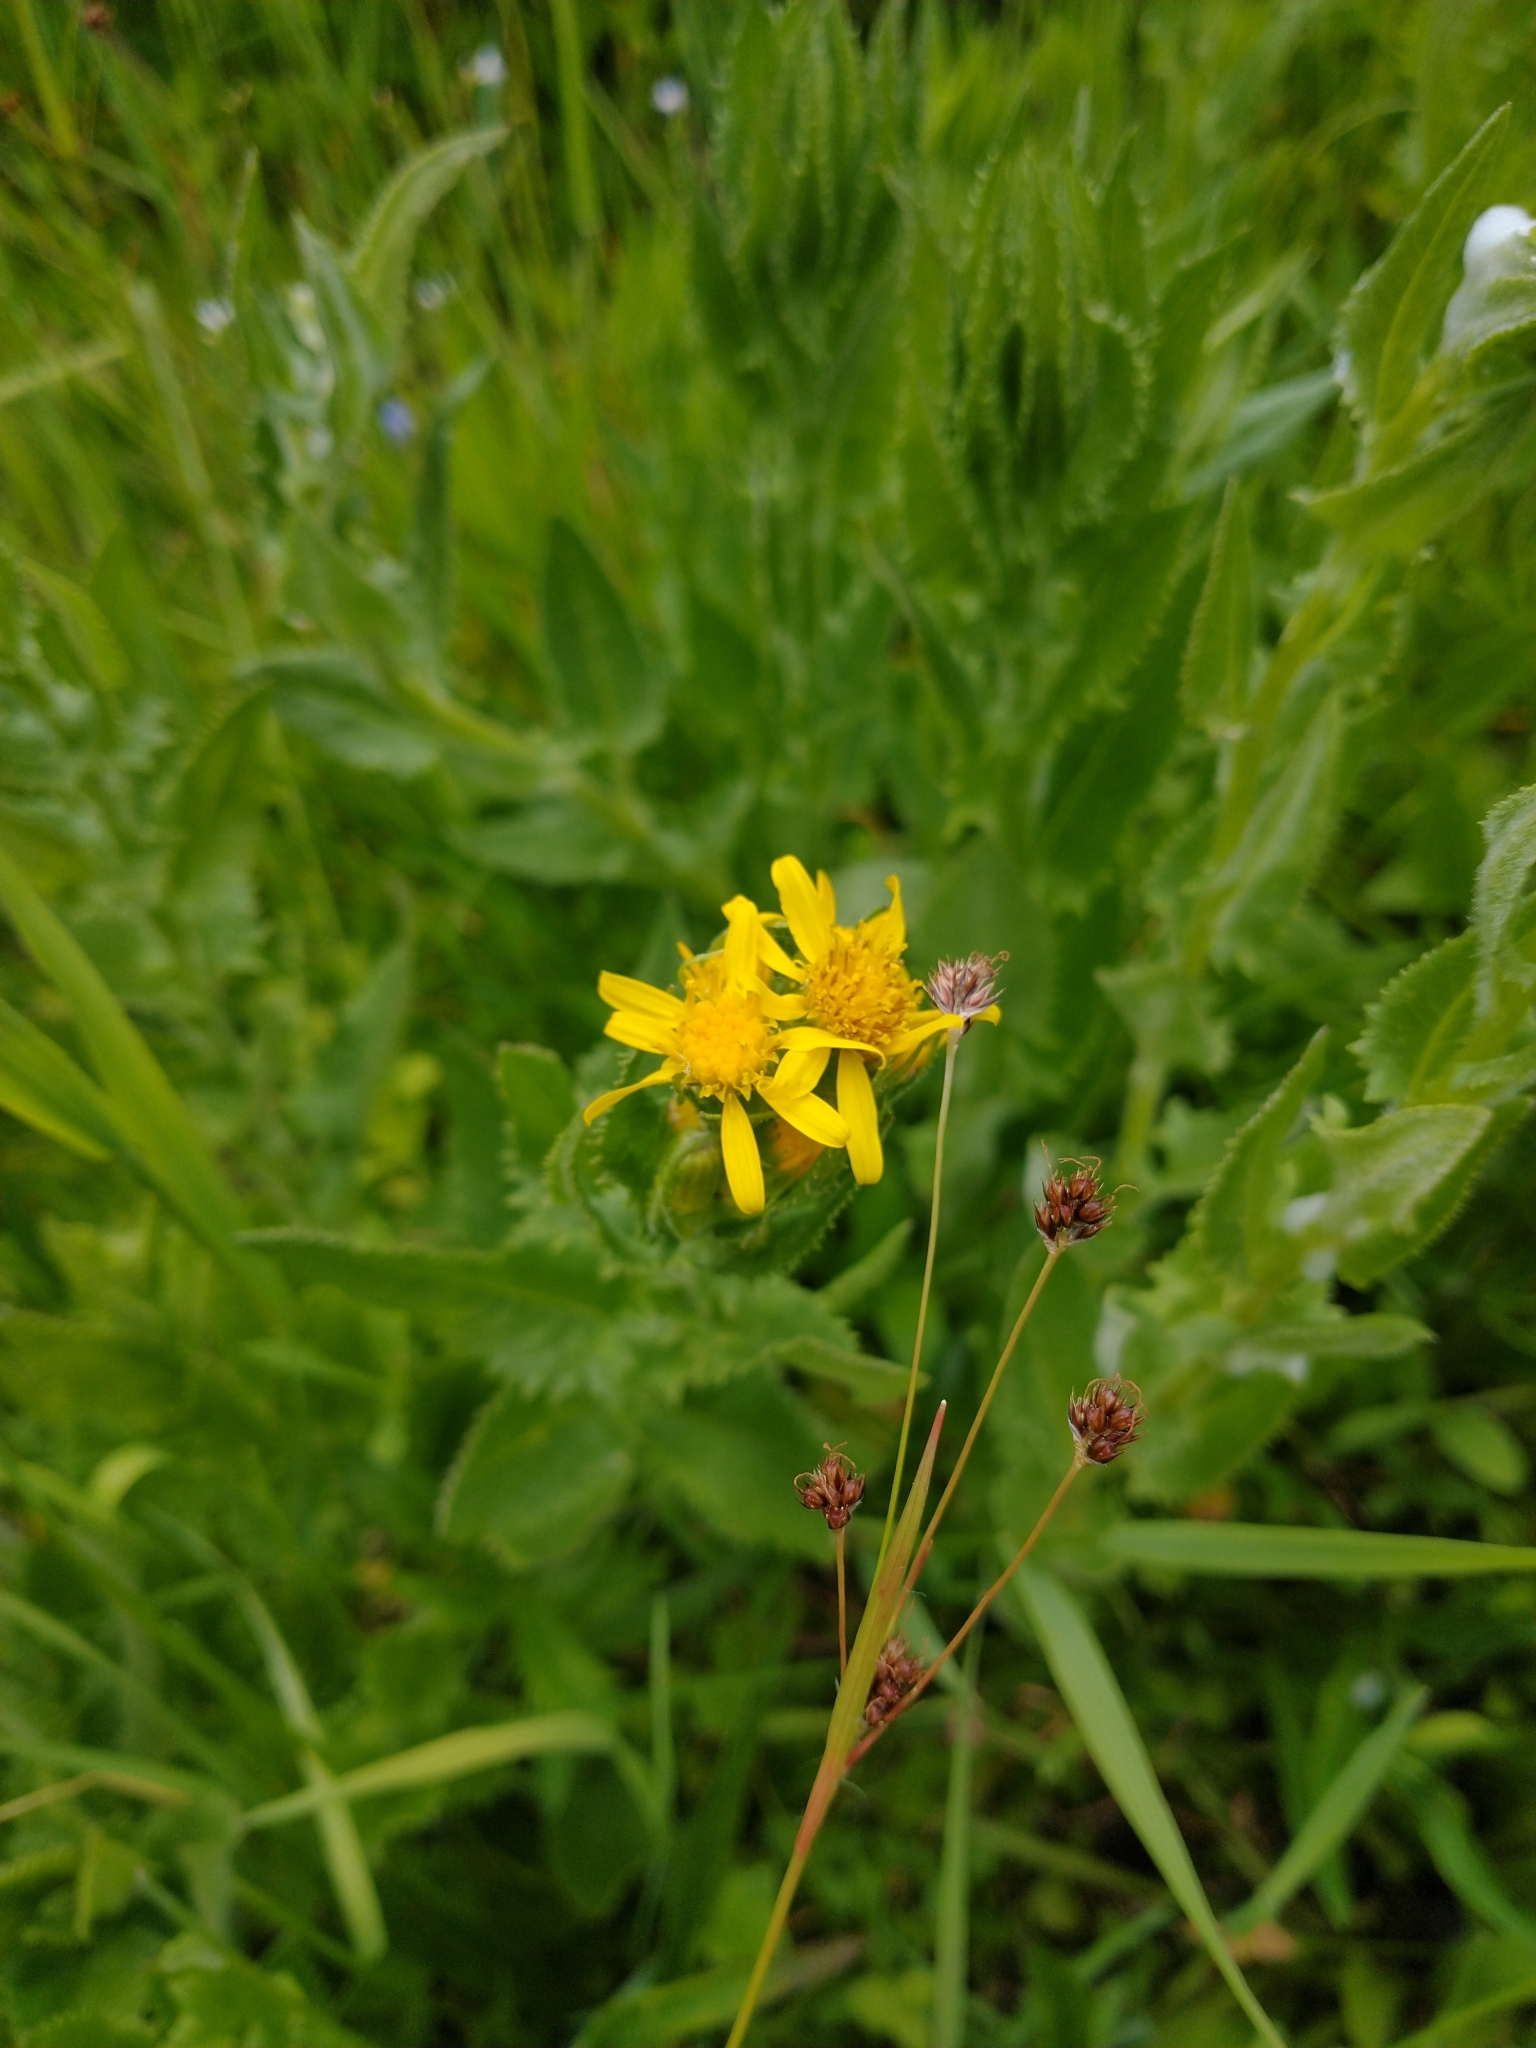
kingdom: Plantae
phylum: Tracheophyta
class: Magnoliopsida
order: Asterales
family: Asteraceae
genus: Senecio
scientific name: Senecio triangularis
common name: Arrowleaf butterweed
